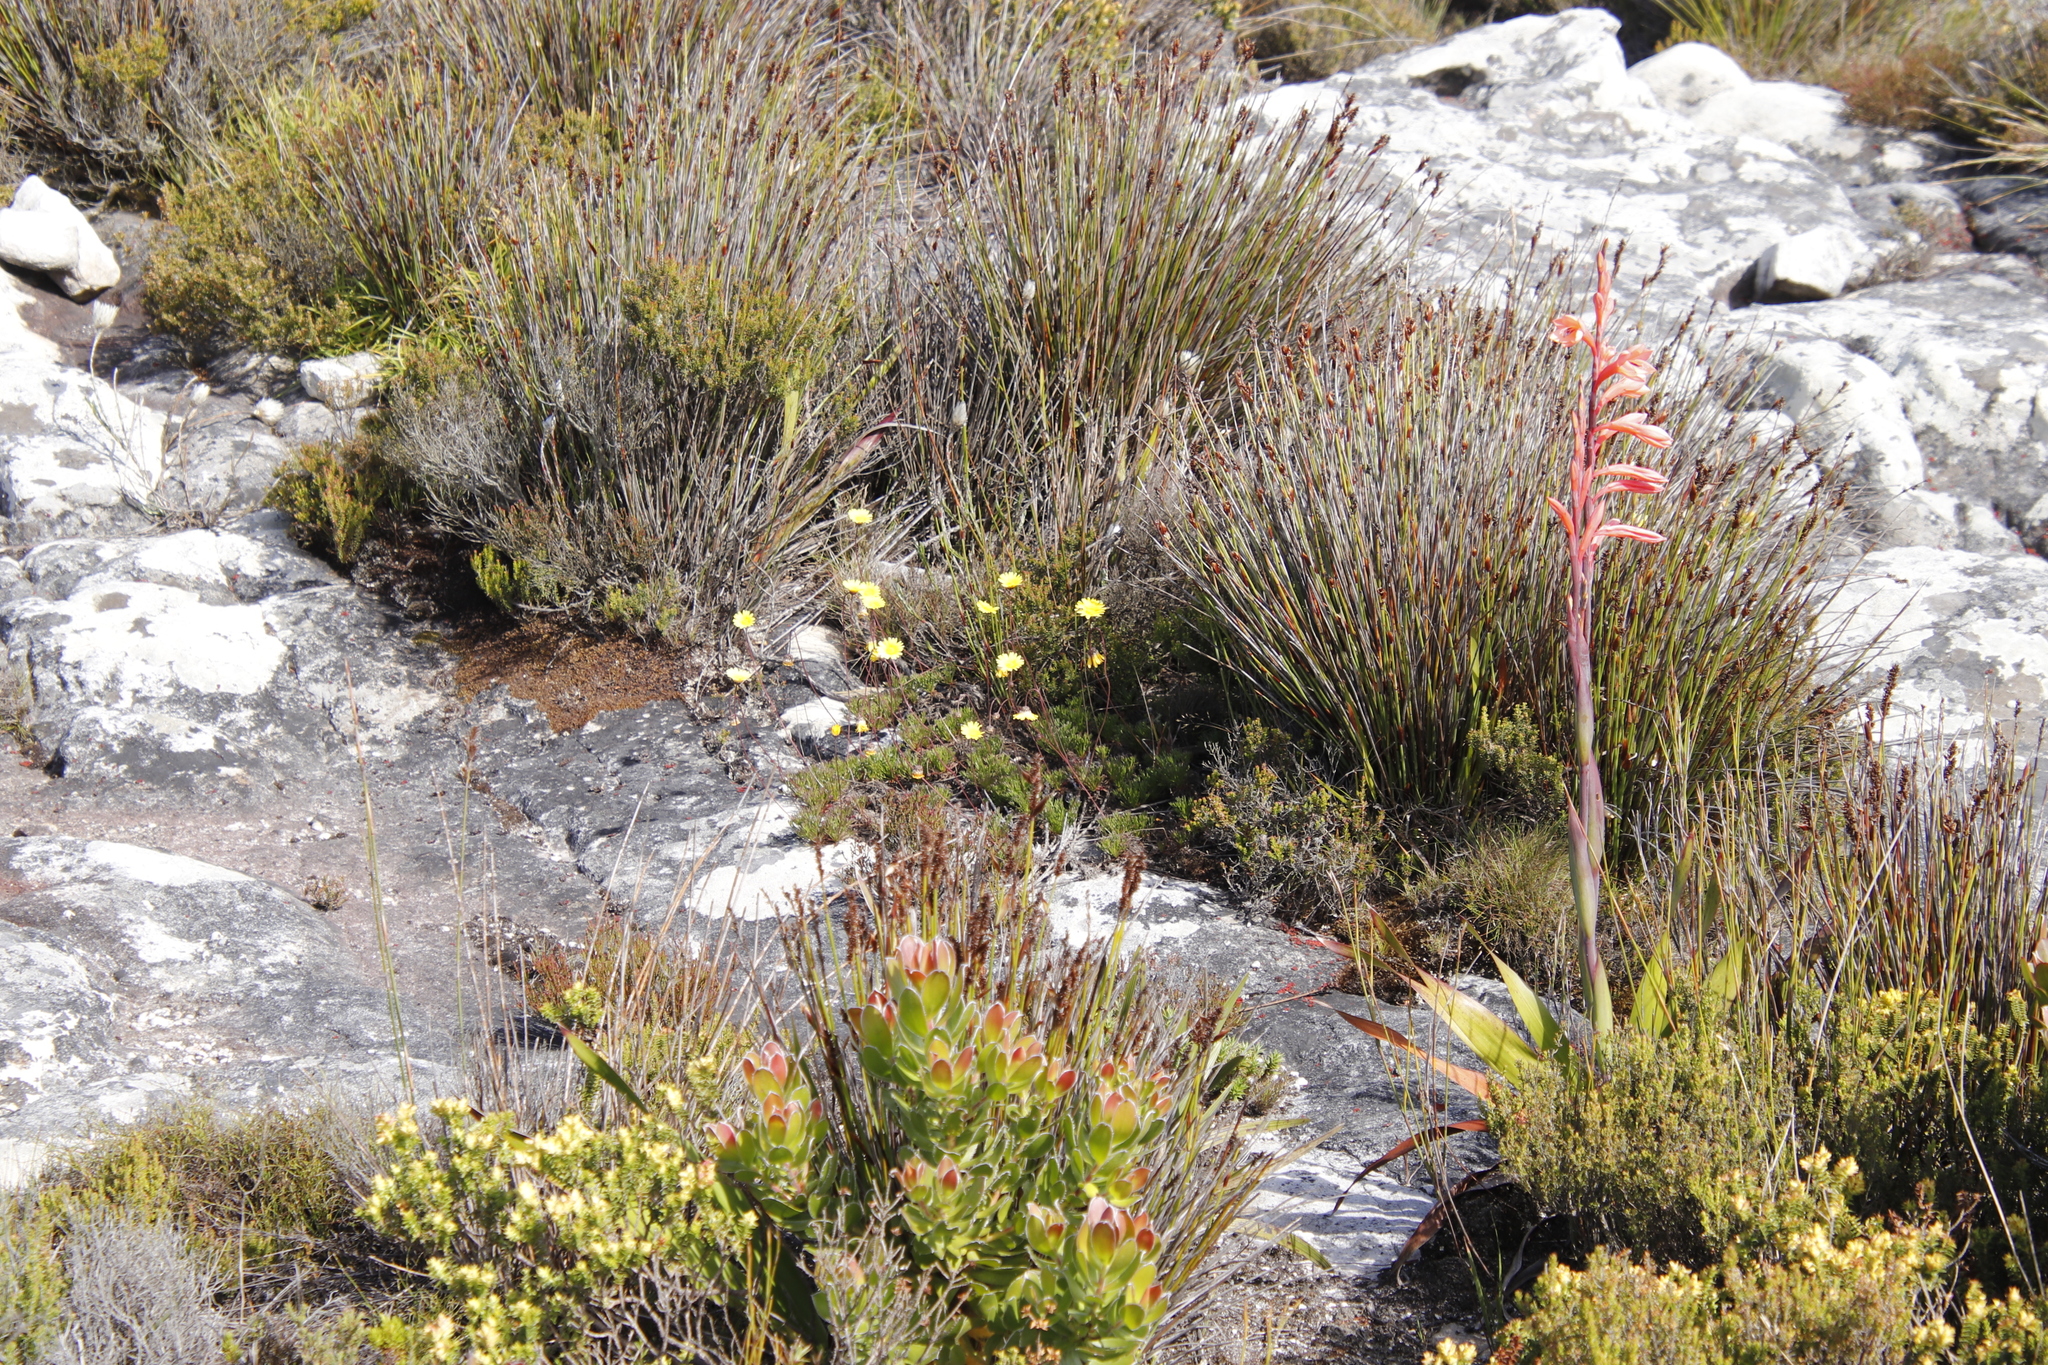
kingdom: Plantae
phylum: Tracheophyta
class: Magnoliopsida
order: Asterales
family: Asteraceae
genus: Ursinia
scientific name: Ursinia nudicaulis
